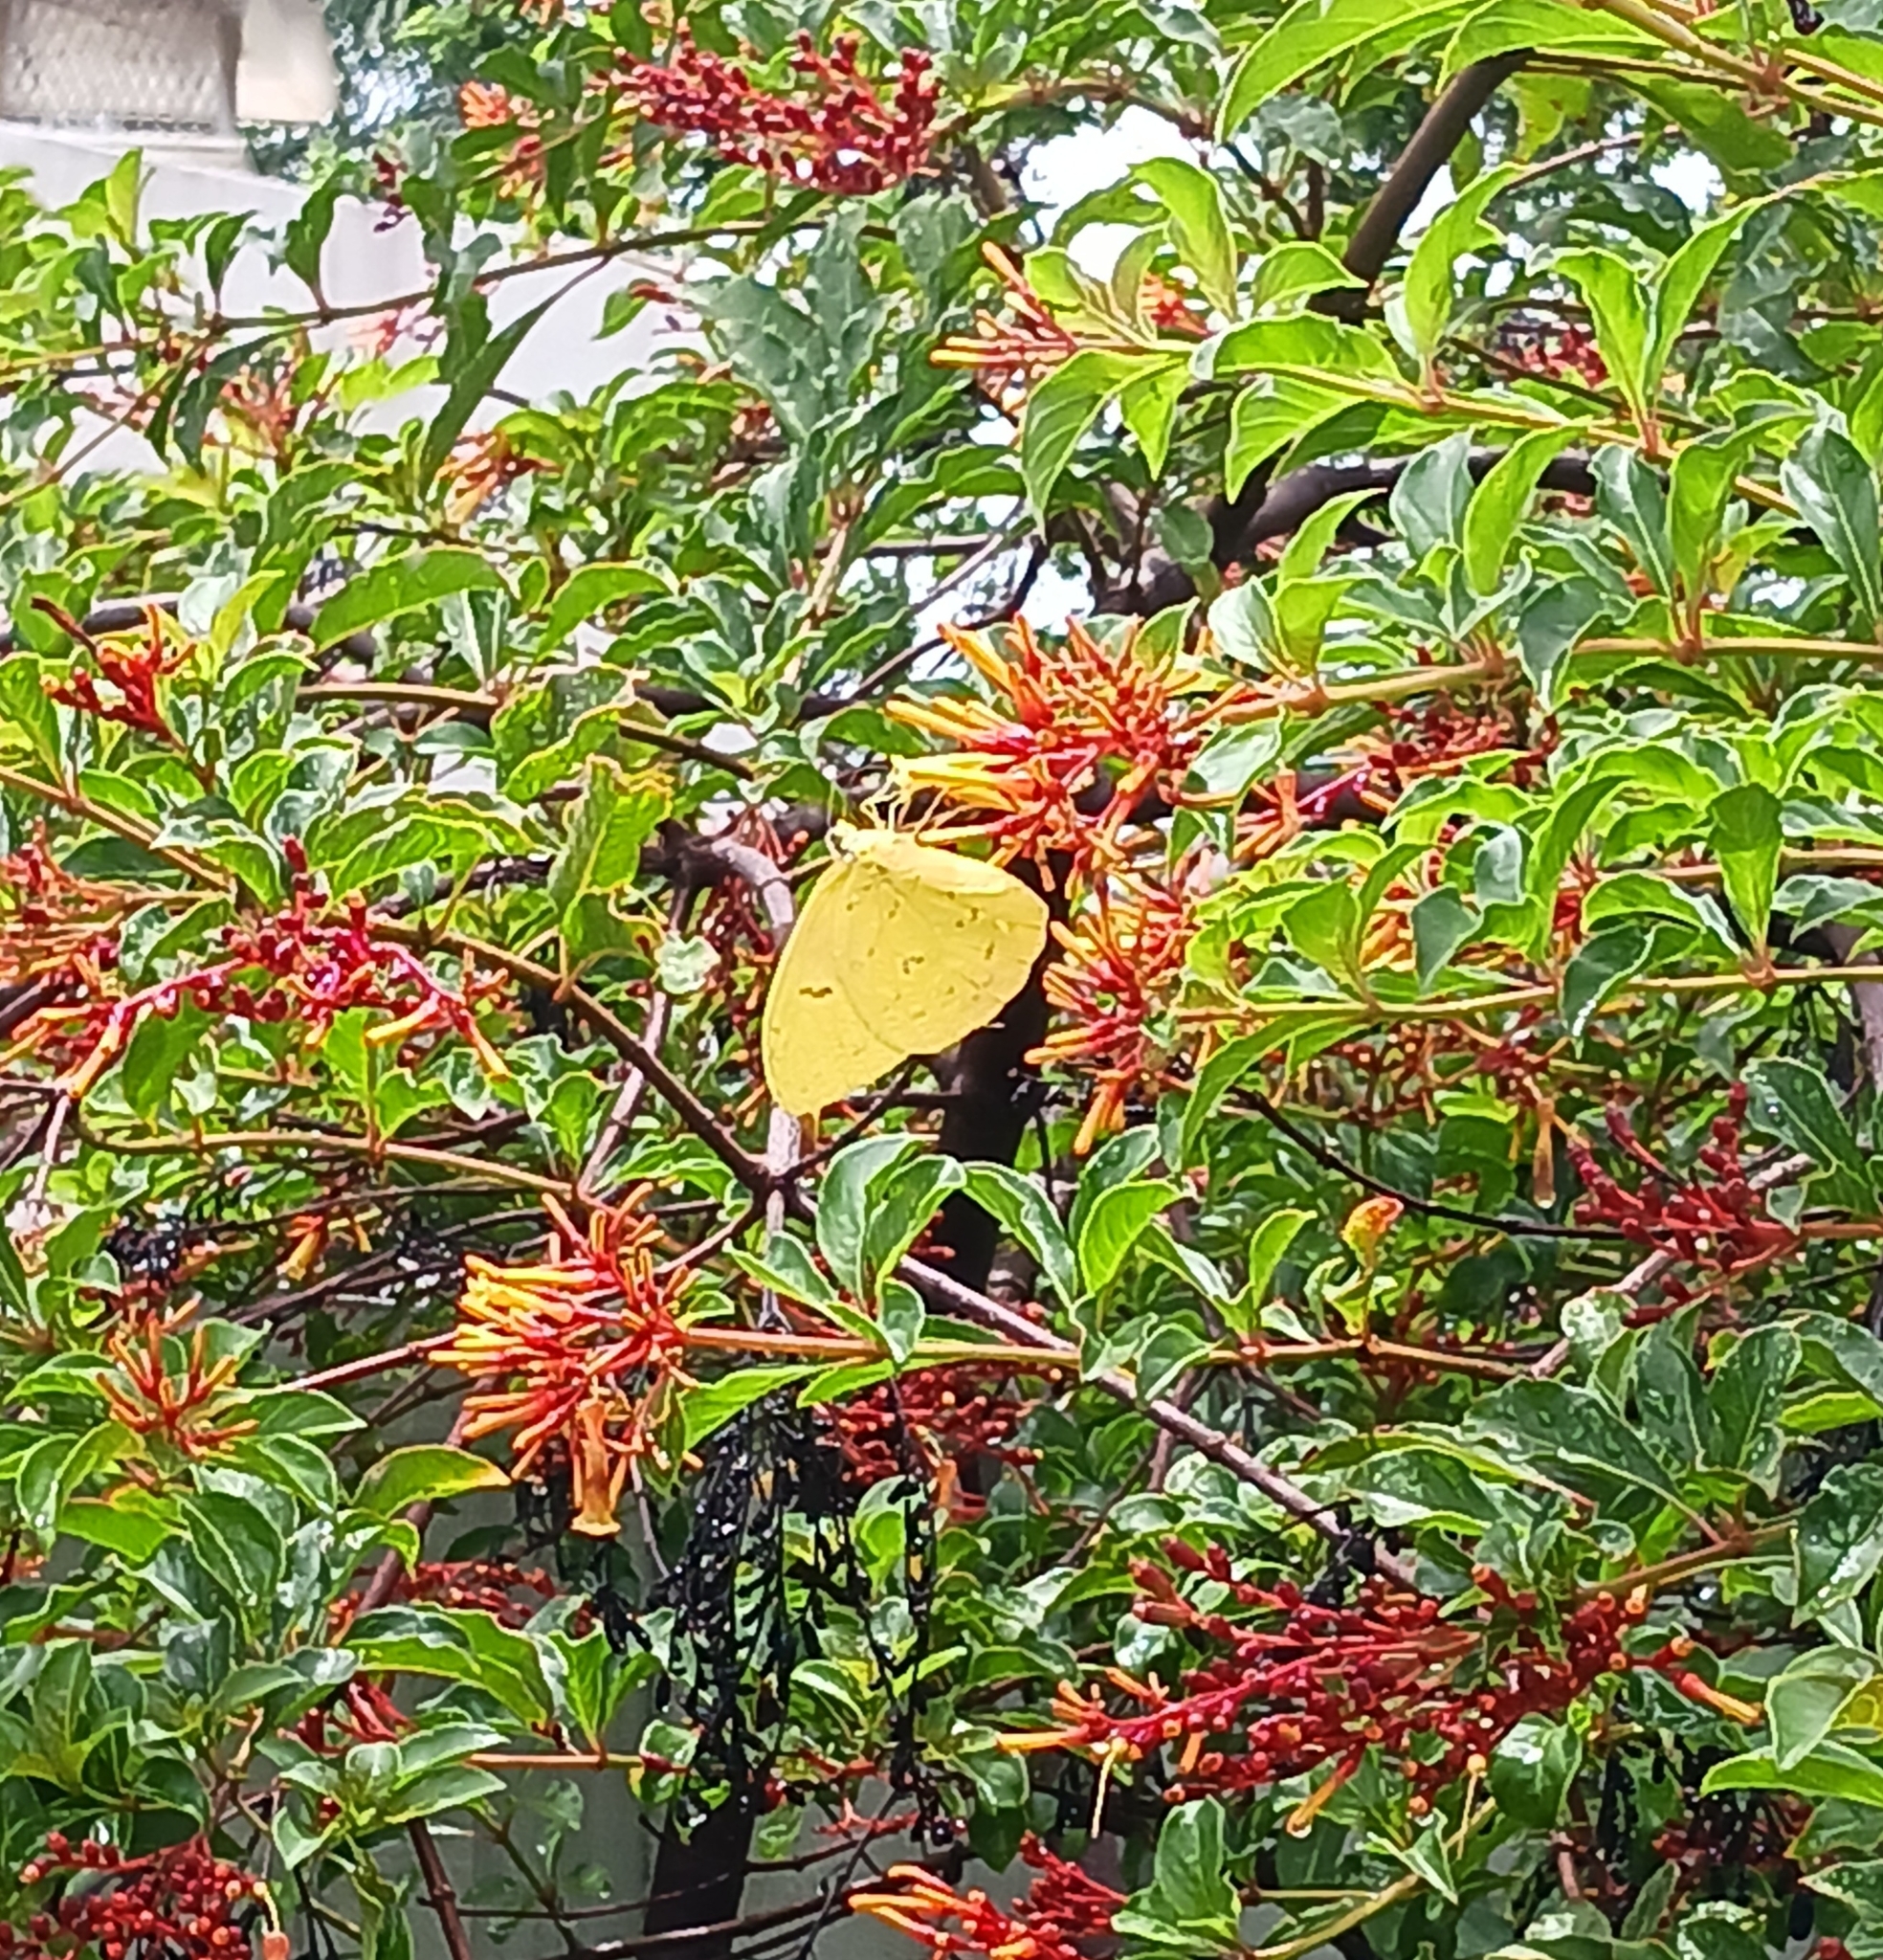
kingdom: Animalia
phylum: Arthropoda
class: Insecta
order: Lepidoptera
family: Pieridae
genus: Phoebis
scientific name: Phoebis philea
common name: Orange-barred giant sulphur
